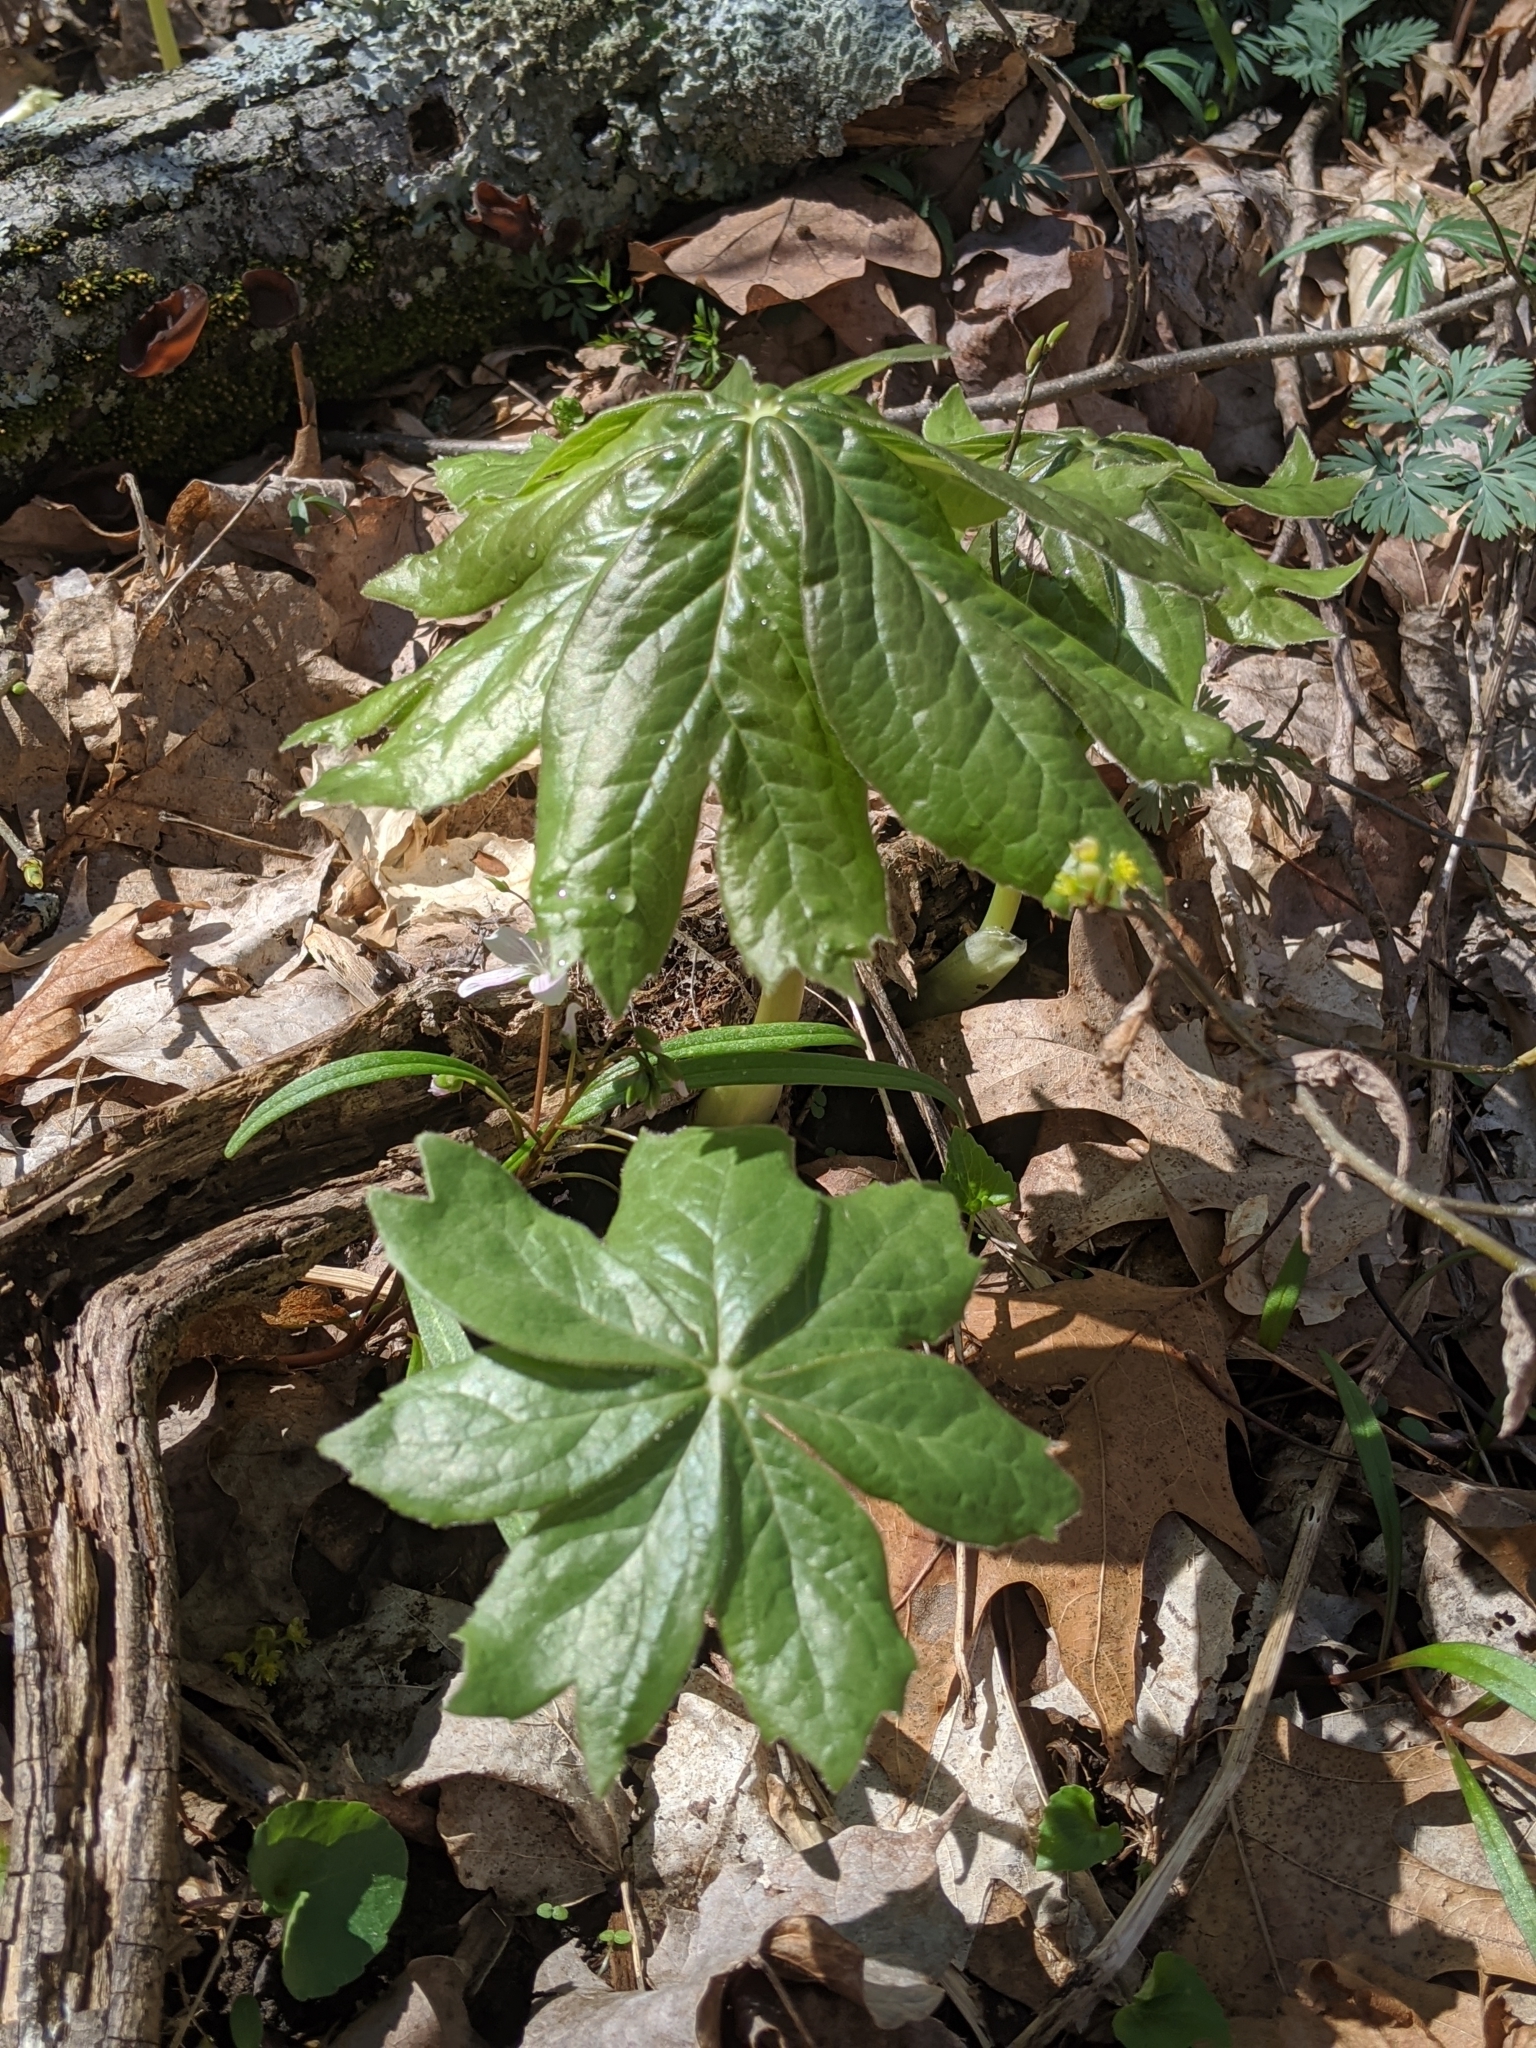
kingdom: Plantae
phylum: Tracheophyta
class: Magnoliopsida
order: Ranunculales
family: Berberidaceae
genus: Podophyllum
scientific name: Podophyllum peltatum
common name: Wild mandrake
